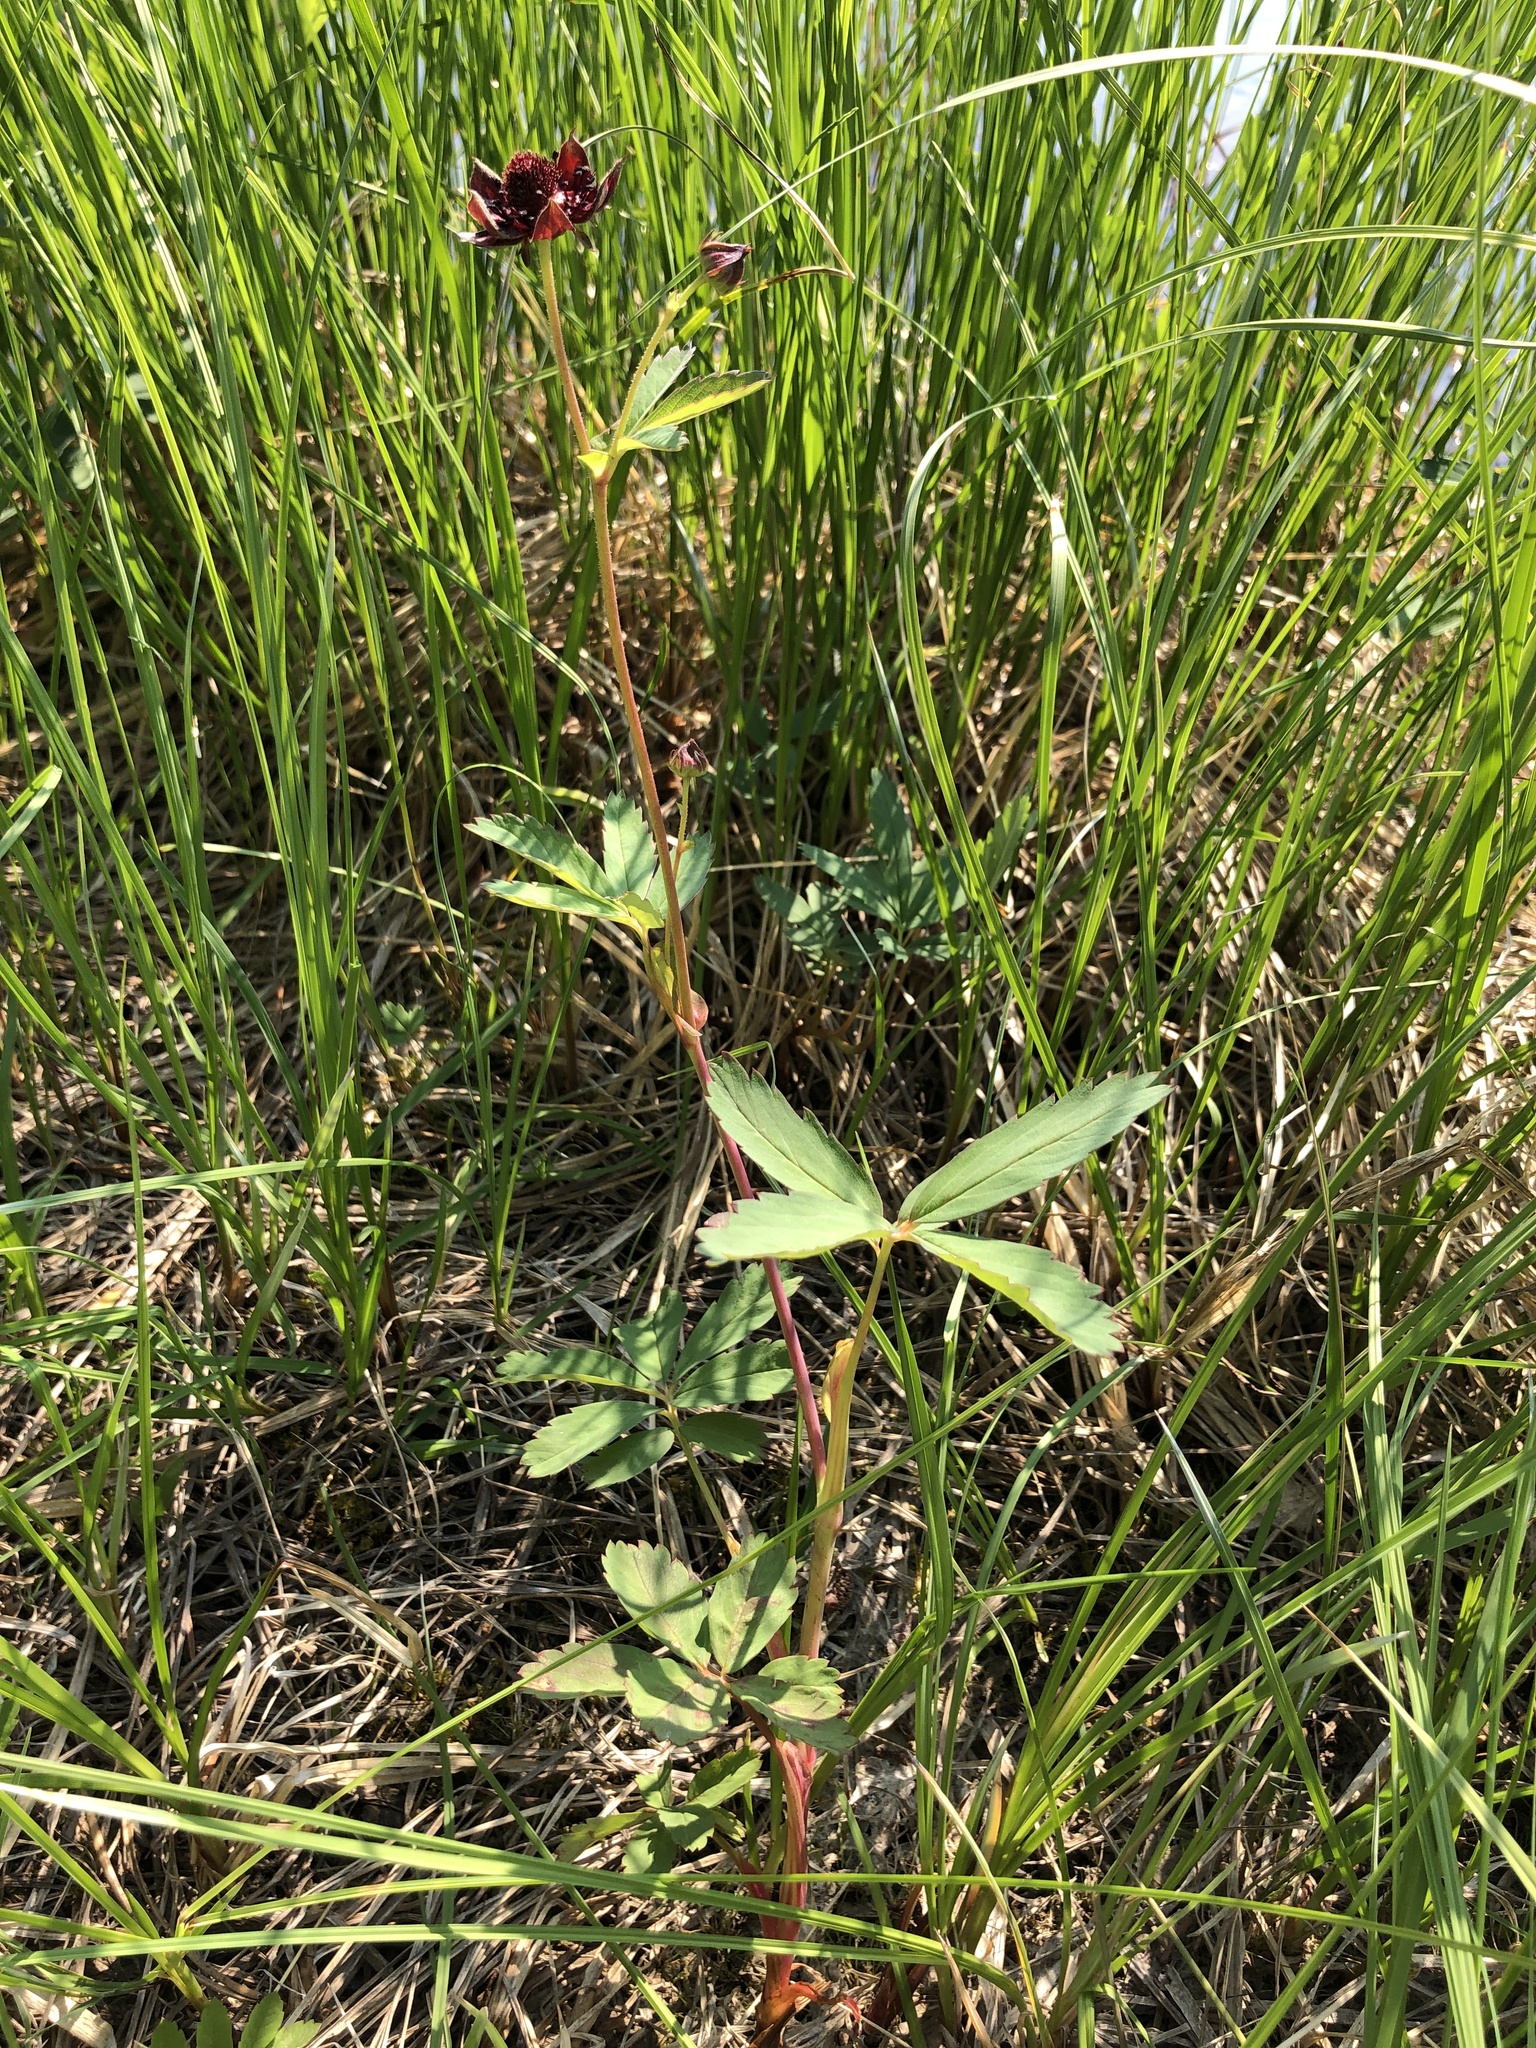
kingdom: Plantae
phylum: Tracheophyta
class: Magnoliopsida
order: Rosales
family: Rosaceae
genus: Comarum
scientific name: Comarum palustre
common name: Marsh cinquefoil
